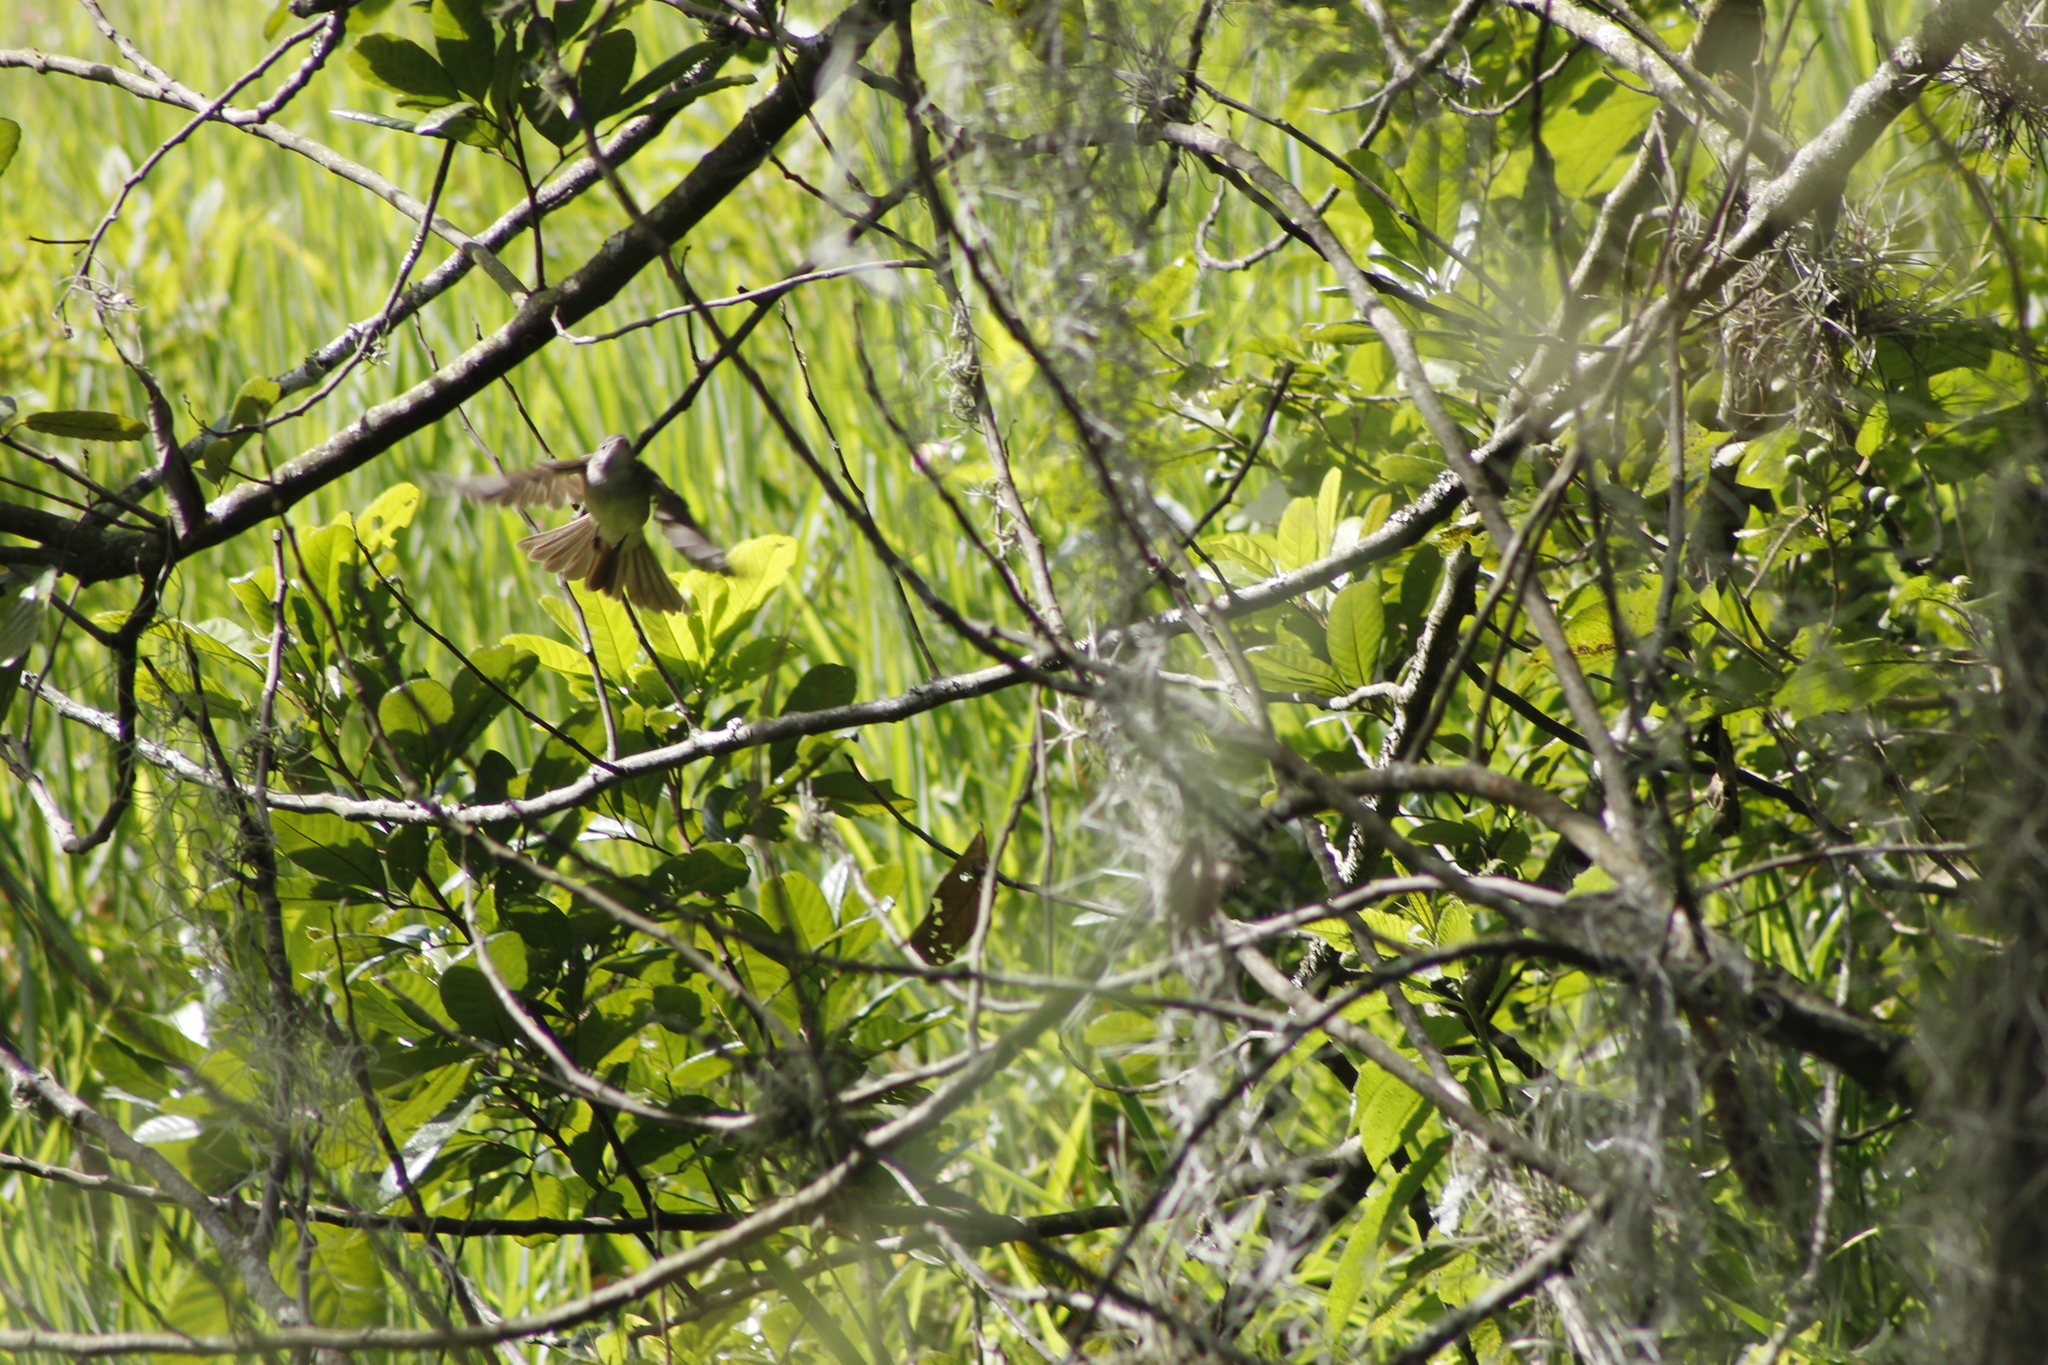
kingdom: Animalia
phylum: Chordata
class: Aves
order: Passeriformes
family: Tyrannidae
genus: Elaenia
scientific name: Elaenia flavogaster
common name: Yellow-bellied elaenia
